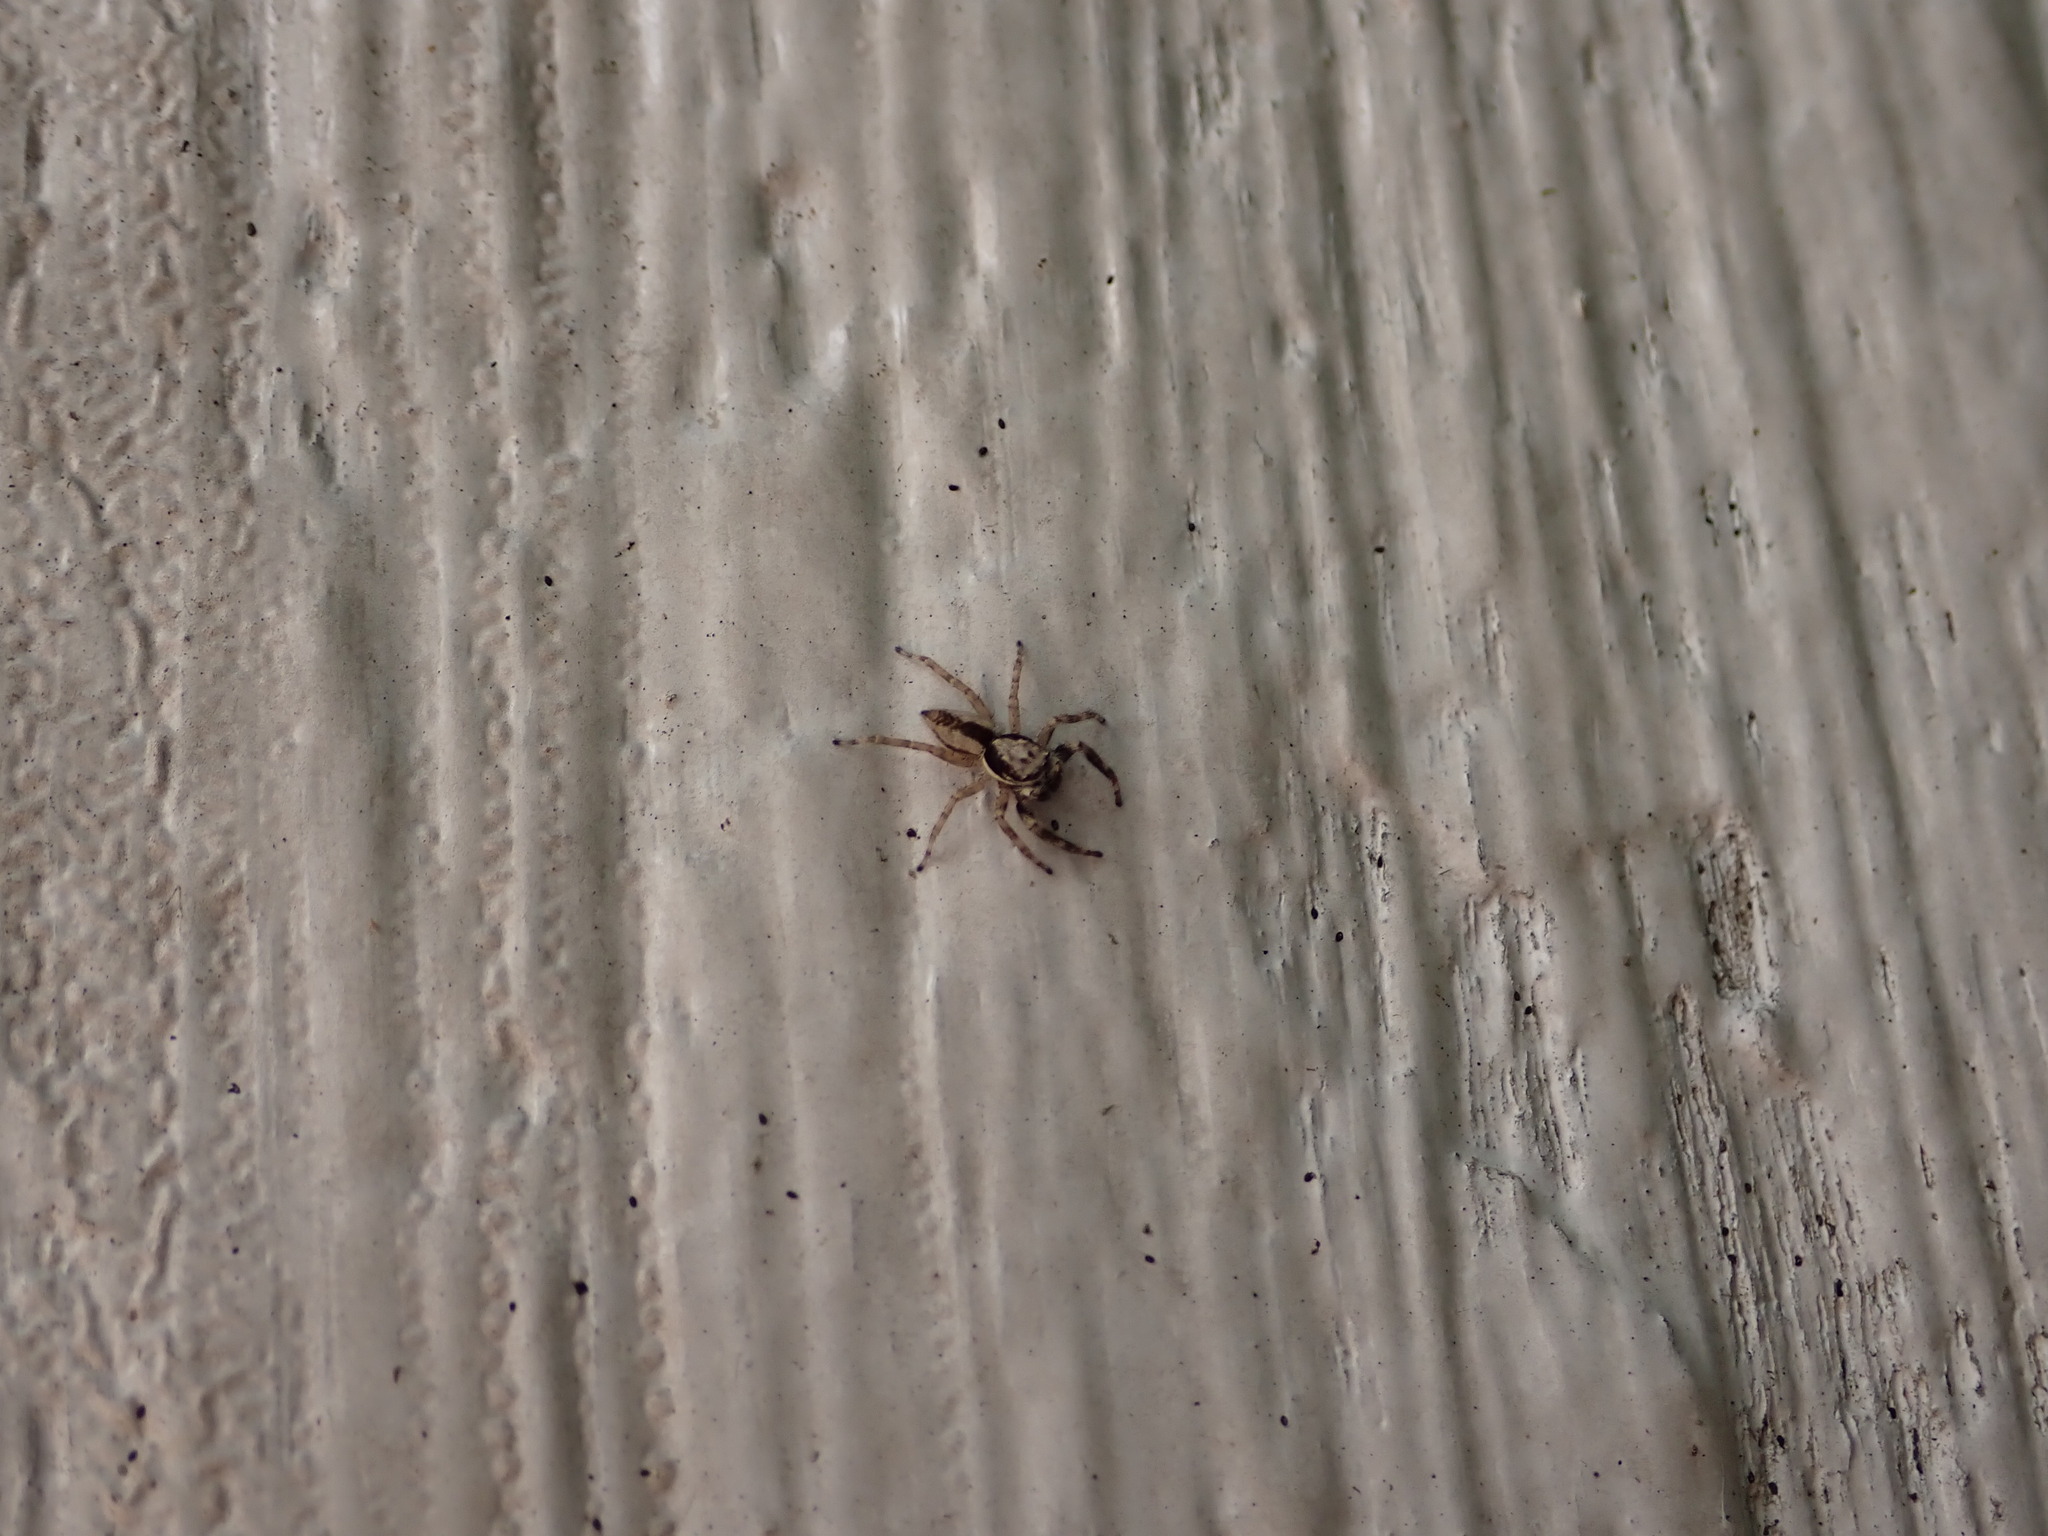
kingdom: Animalia
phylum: Arthropoda
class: Arachnida
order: Araneae
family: Salticidae
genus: Menemerus
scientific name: Menemerus bivittatus
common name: Gray wall jumper
